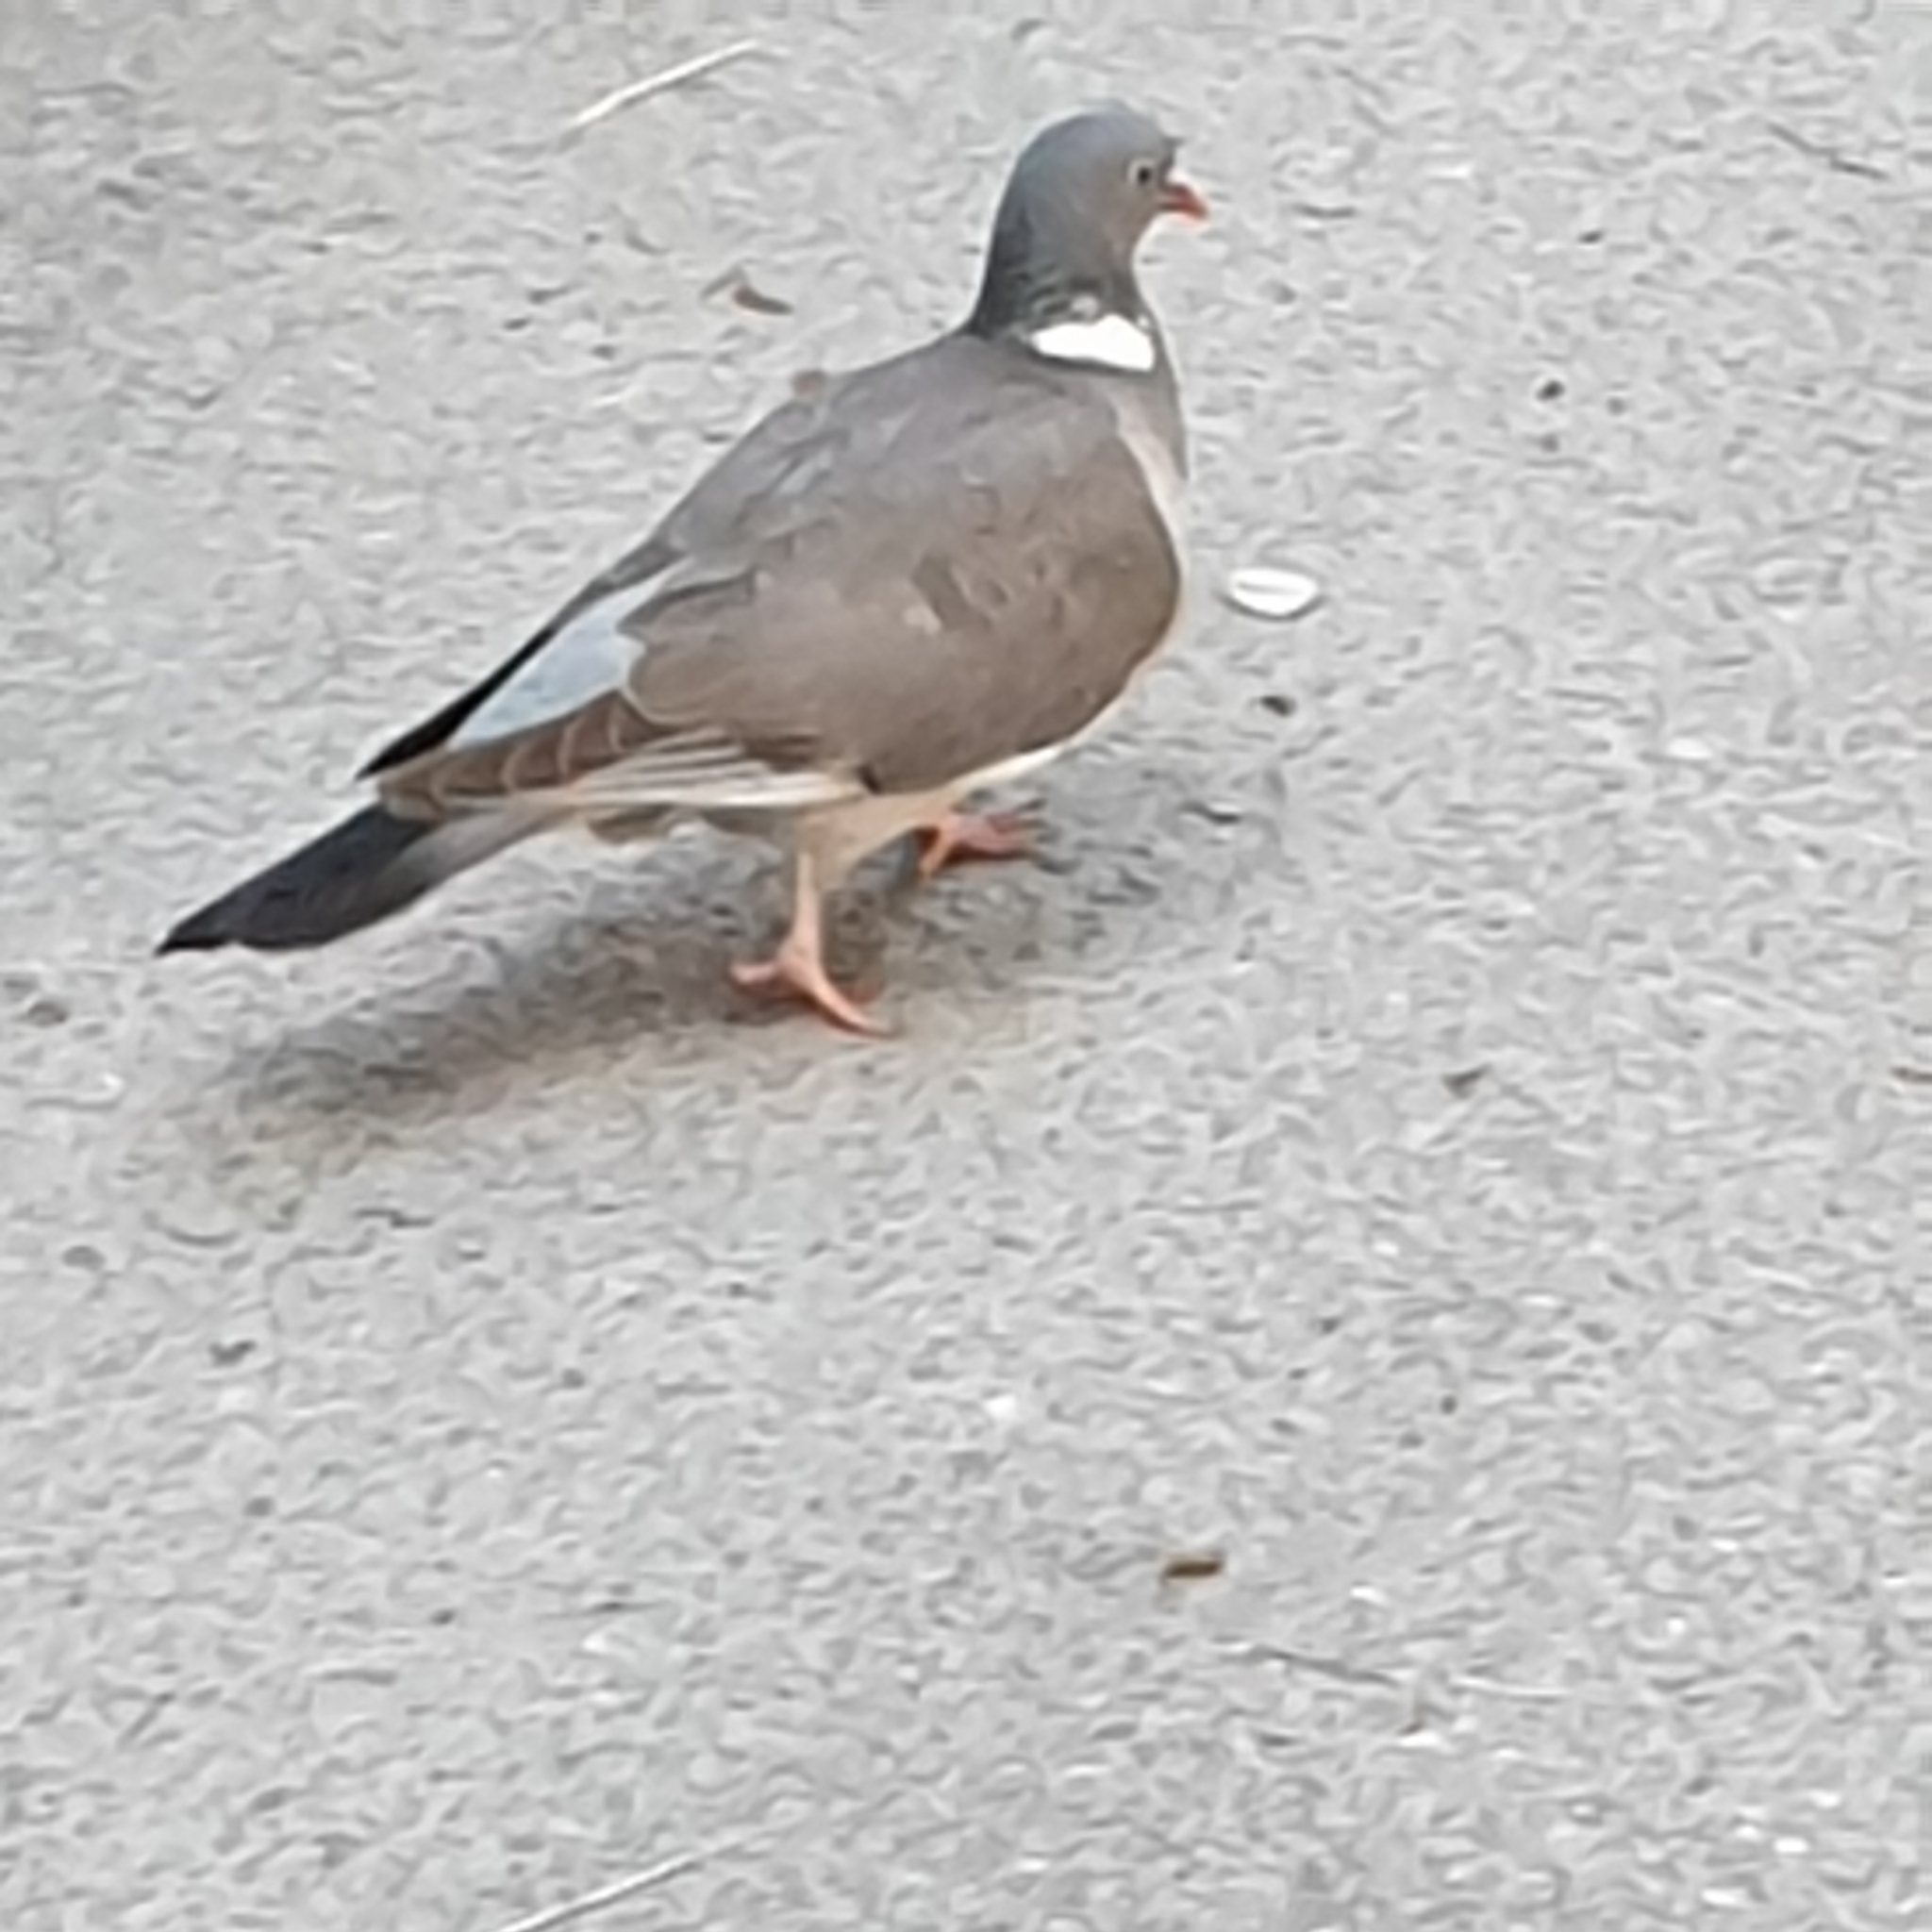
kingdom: Animalia
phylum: Chordata
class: Aves
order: Columbiformes
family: Columbidae
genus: Columba
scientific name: Columba palumbus
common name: Common wood pigeon
